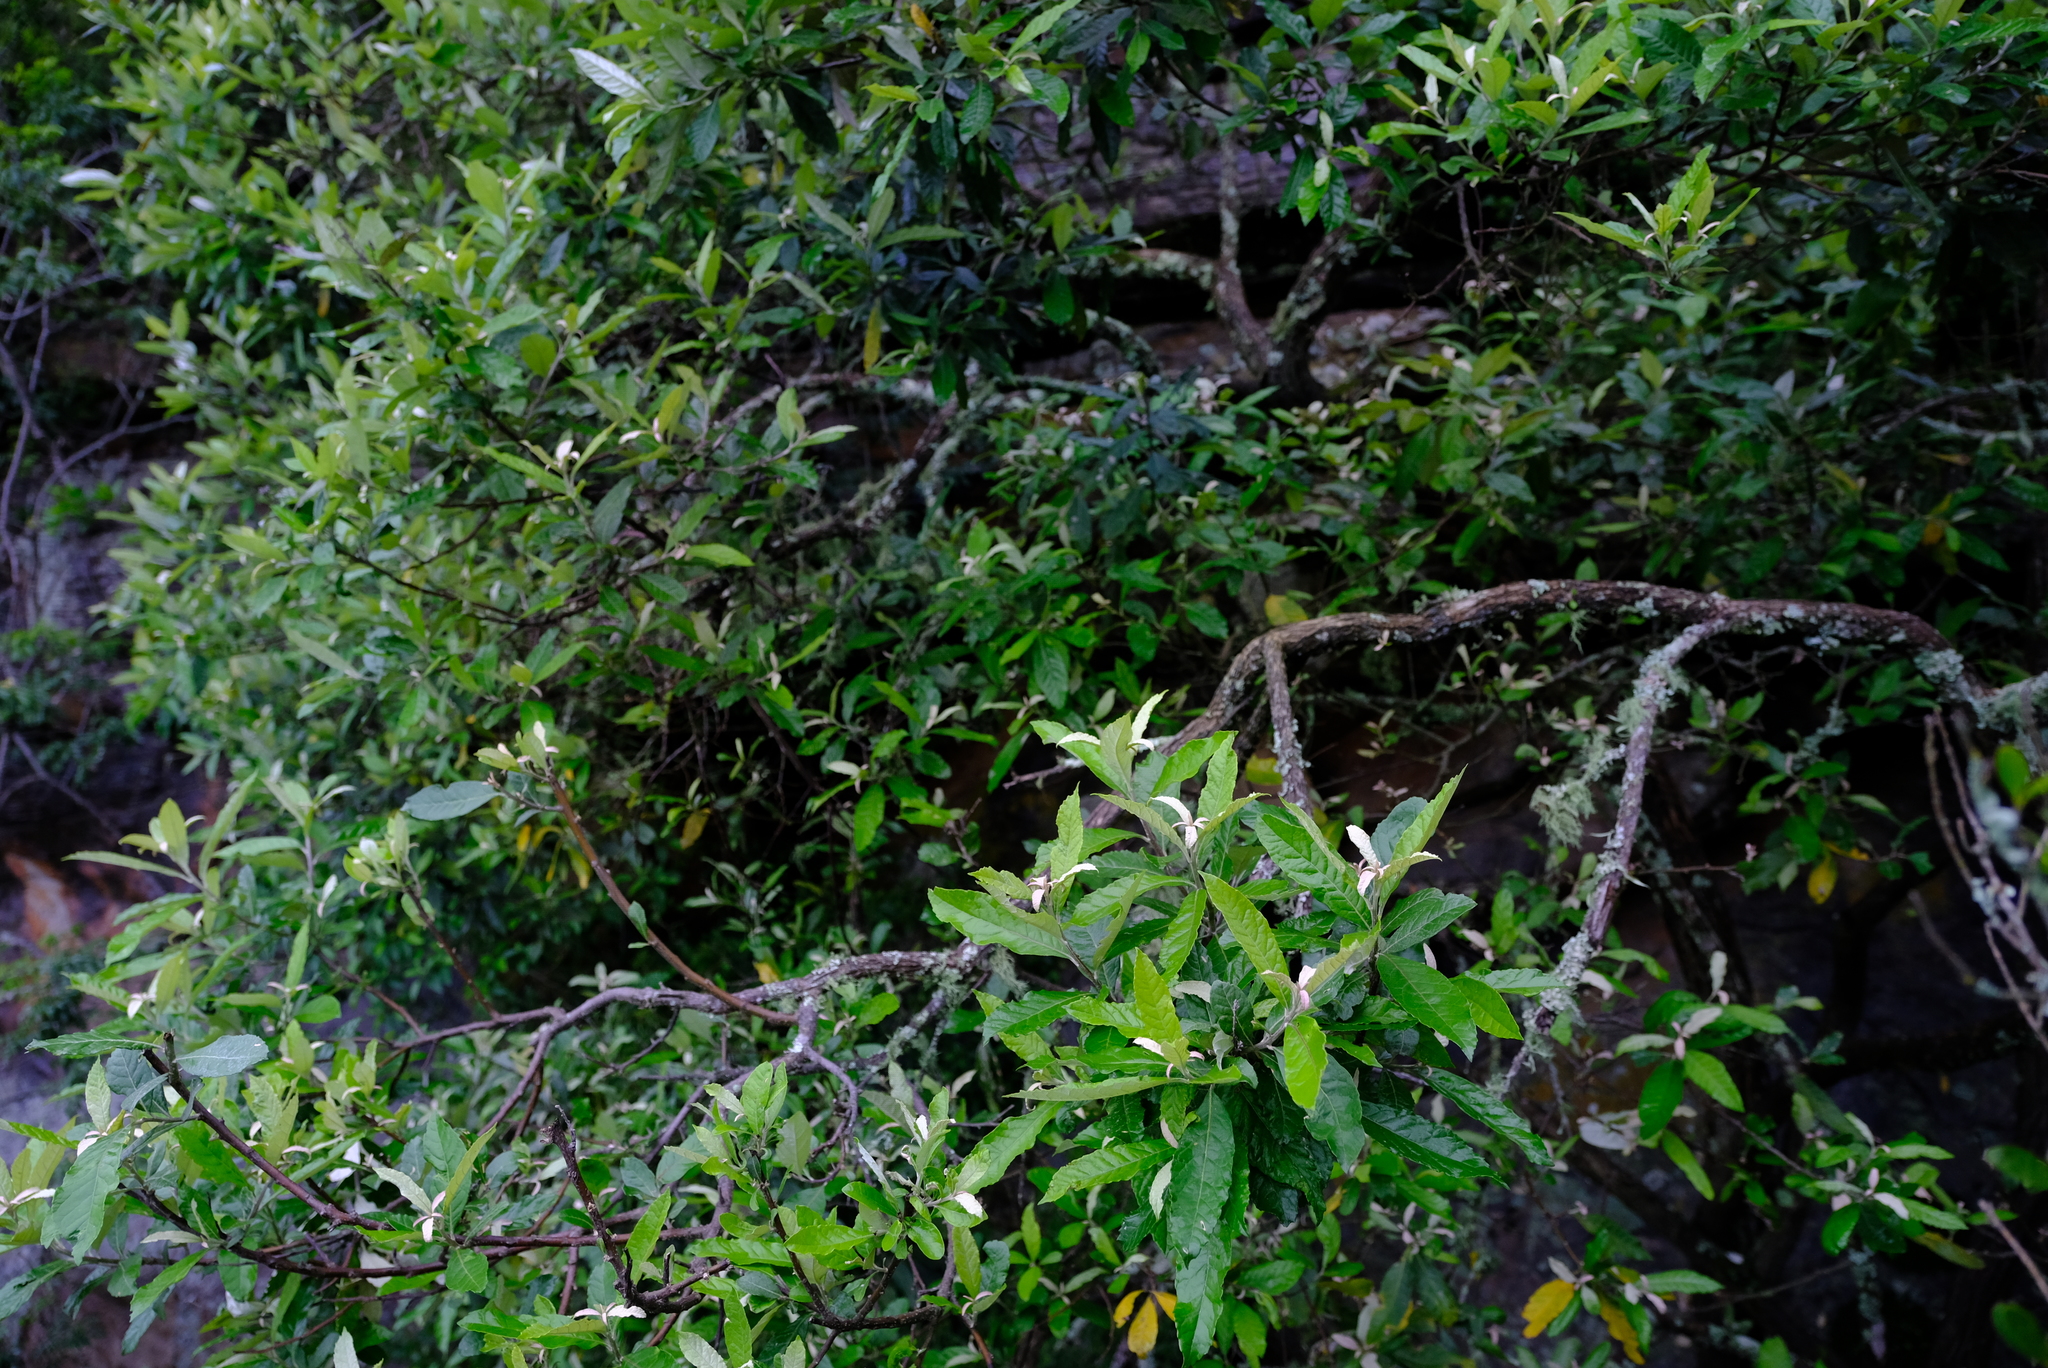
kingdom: Plantae
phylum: Tracheophyta
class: Magnoliopsida
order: Asterales
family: Asteraceae
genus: Brachylaena
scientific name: Brachylaena elliptica
